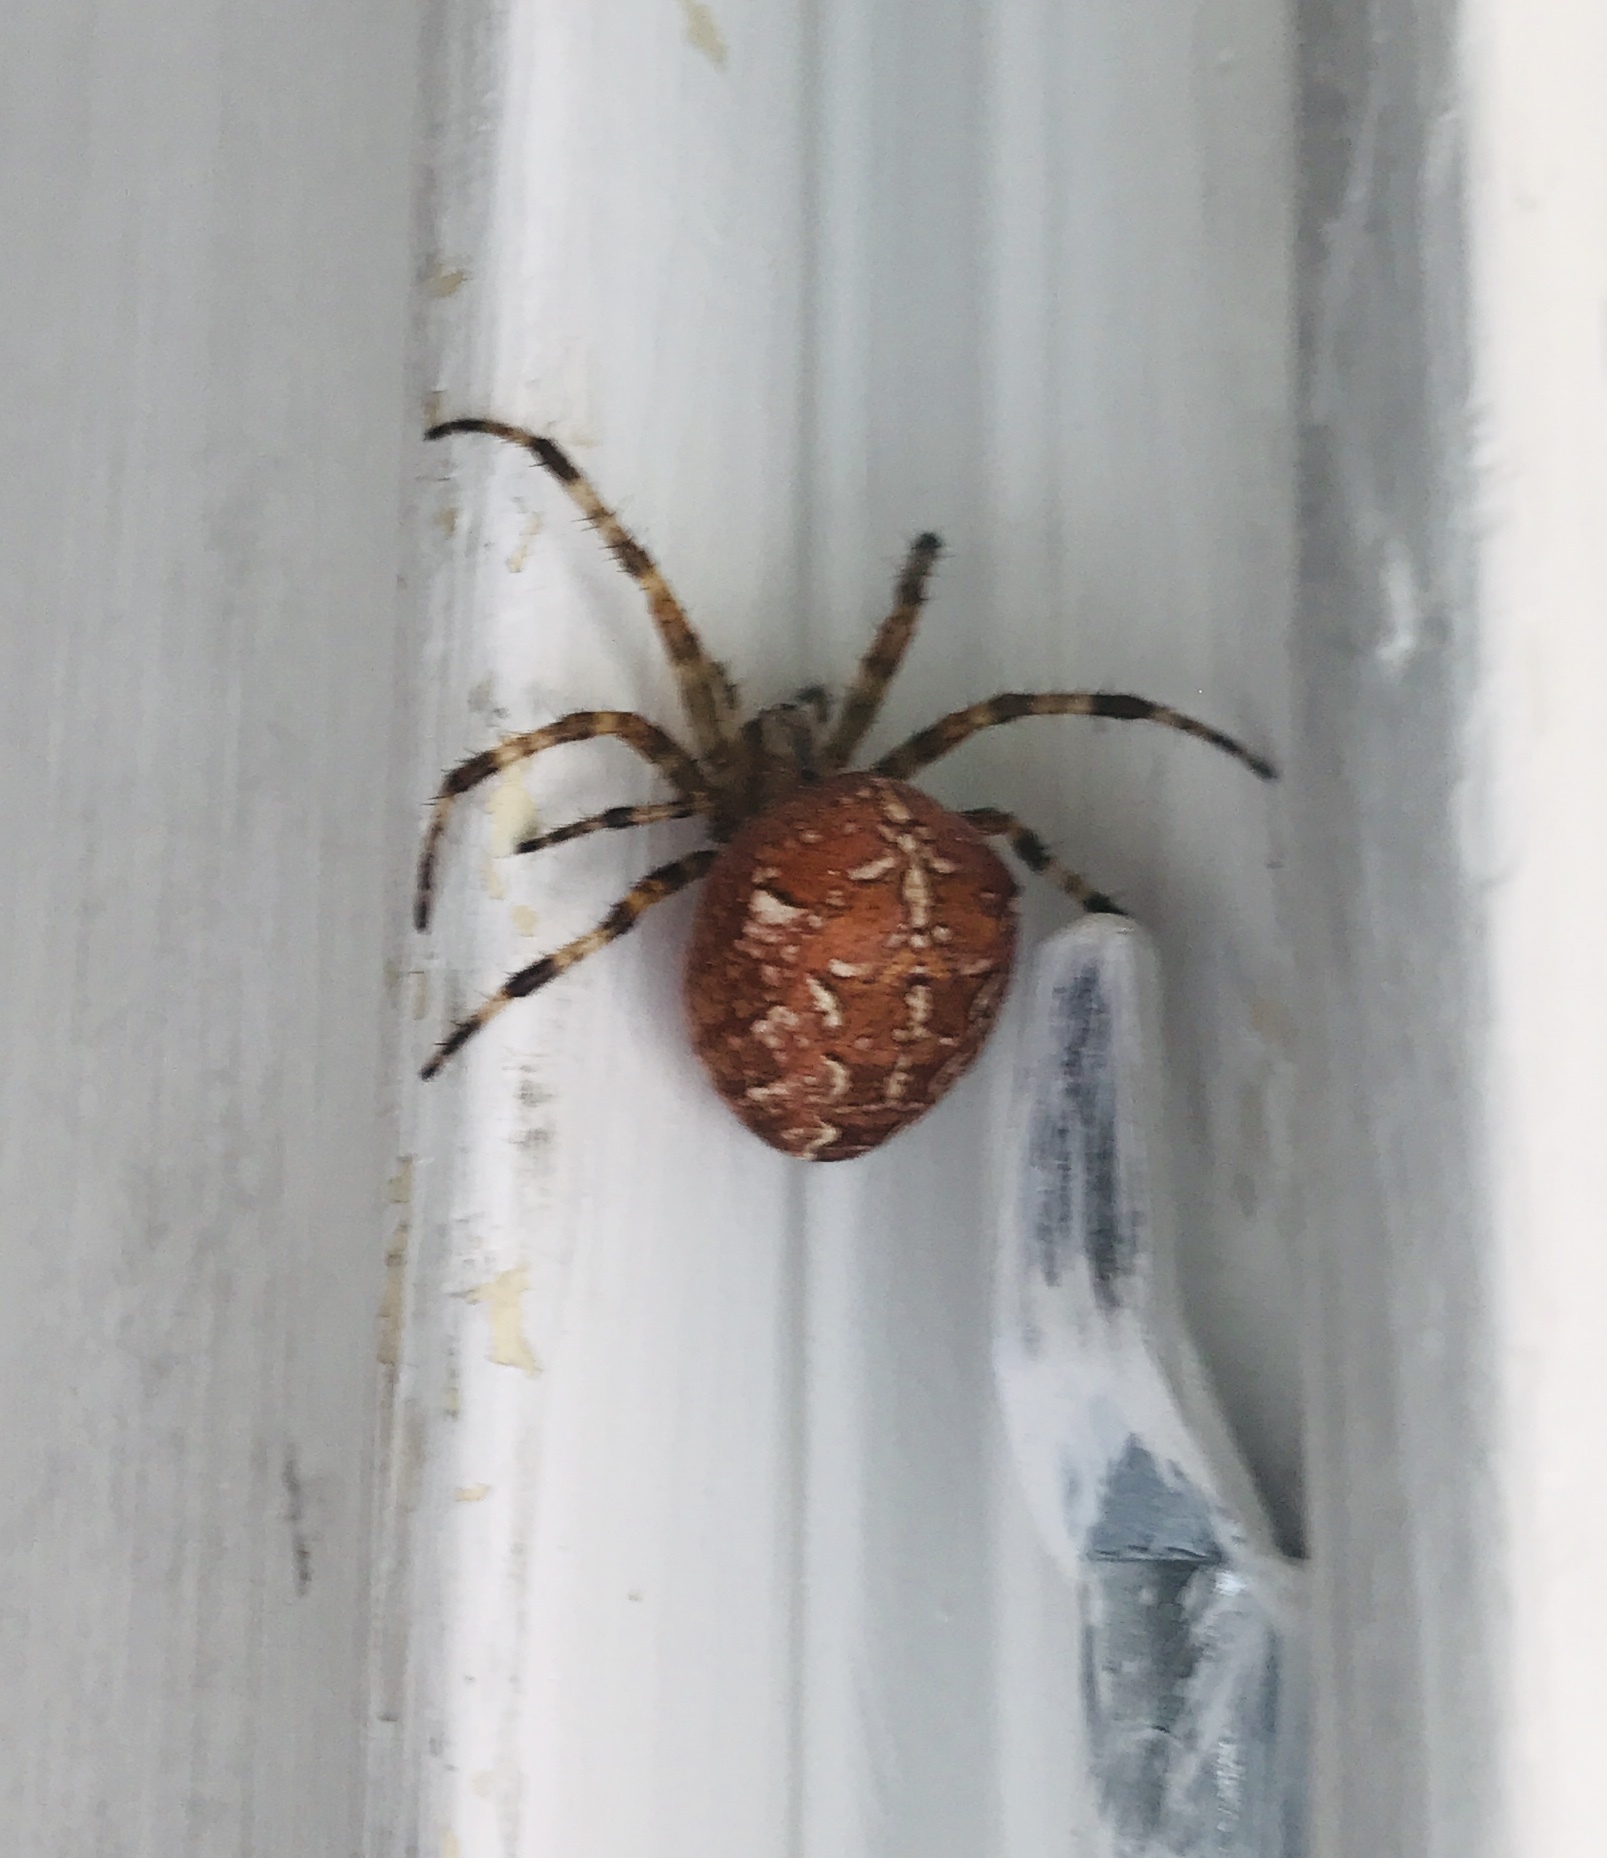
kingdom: Animalia
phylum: Arthropoda
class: Arachnida
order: Araneae
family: Araneidae
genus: Araneus
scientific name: Araneus diadematus
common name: Cross orbweaver
